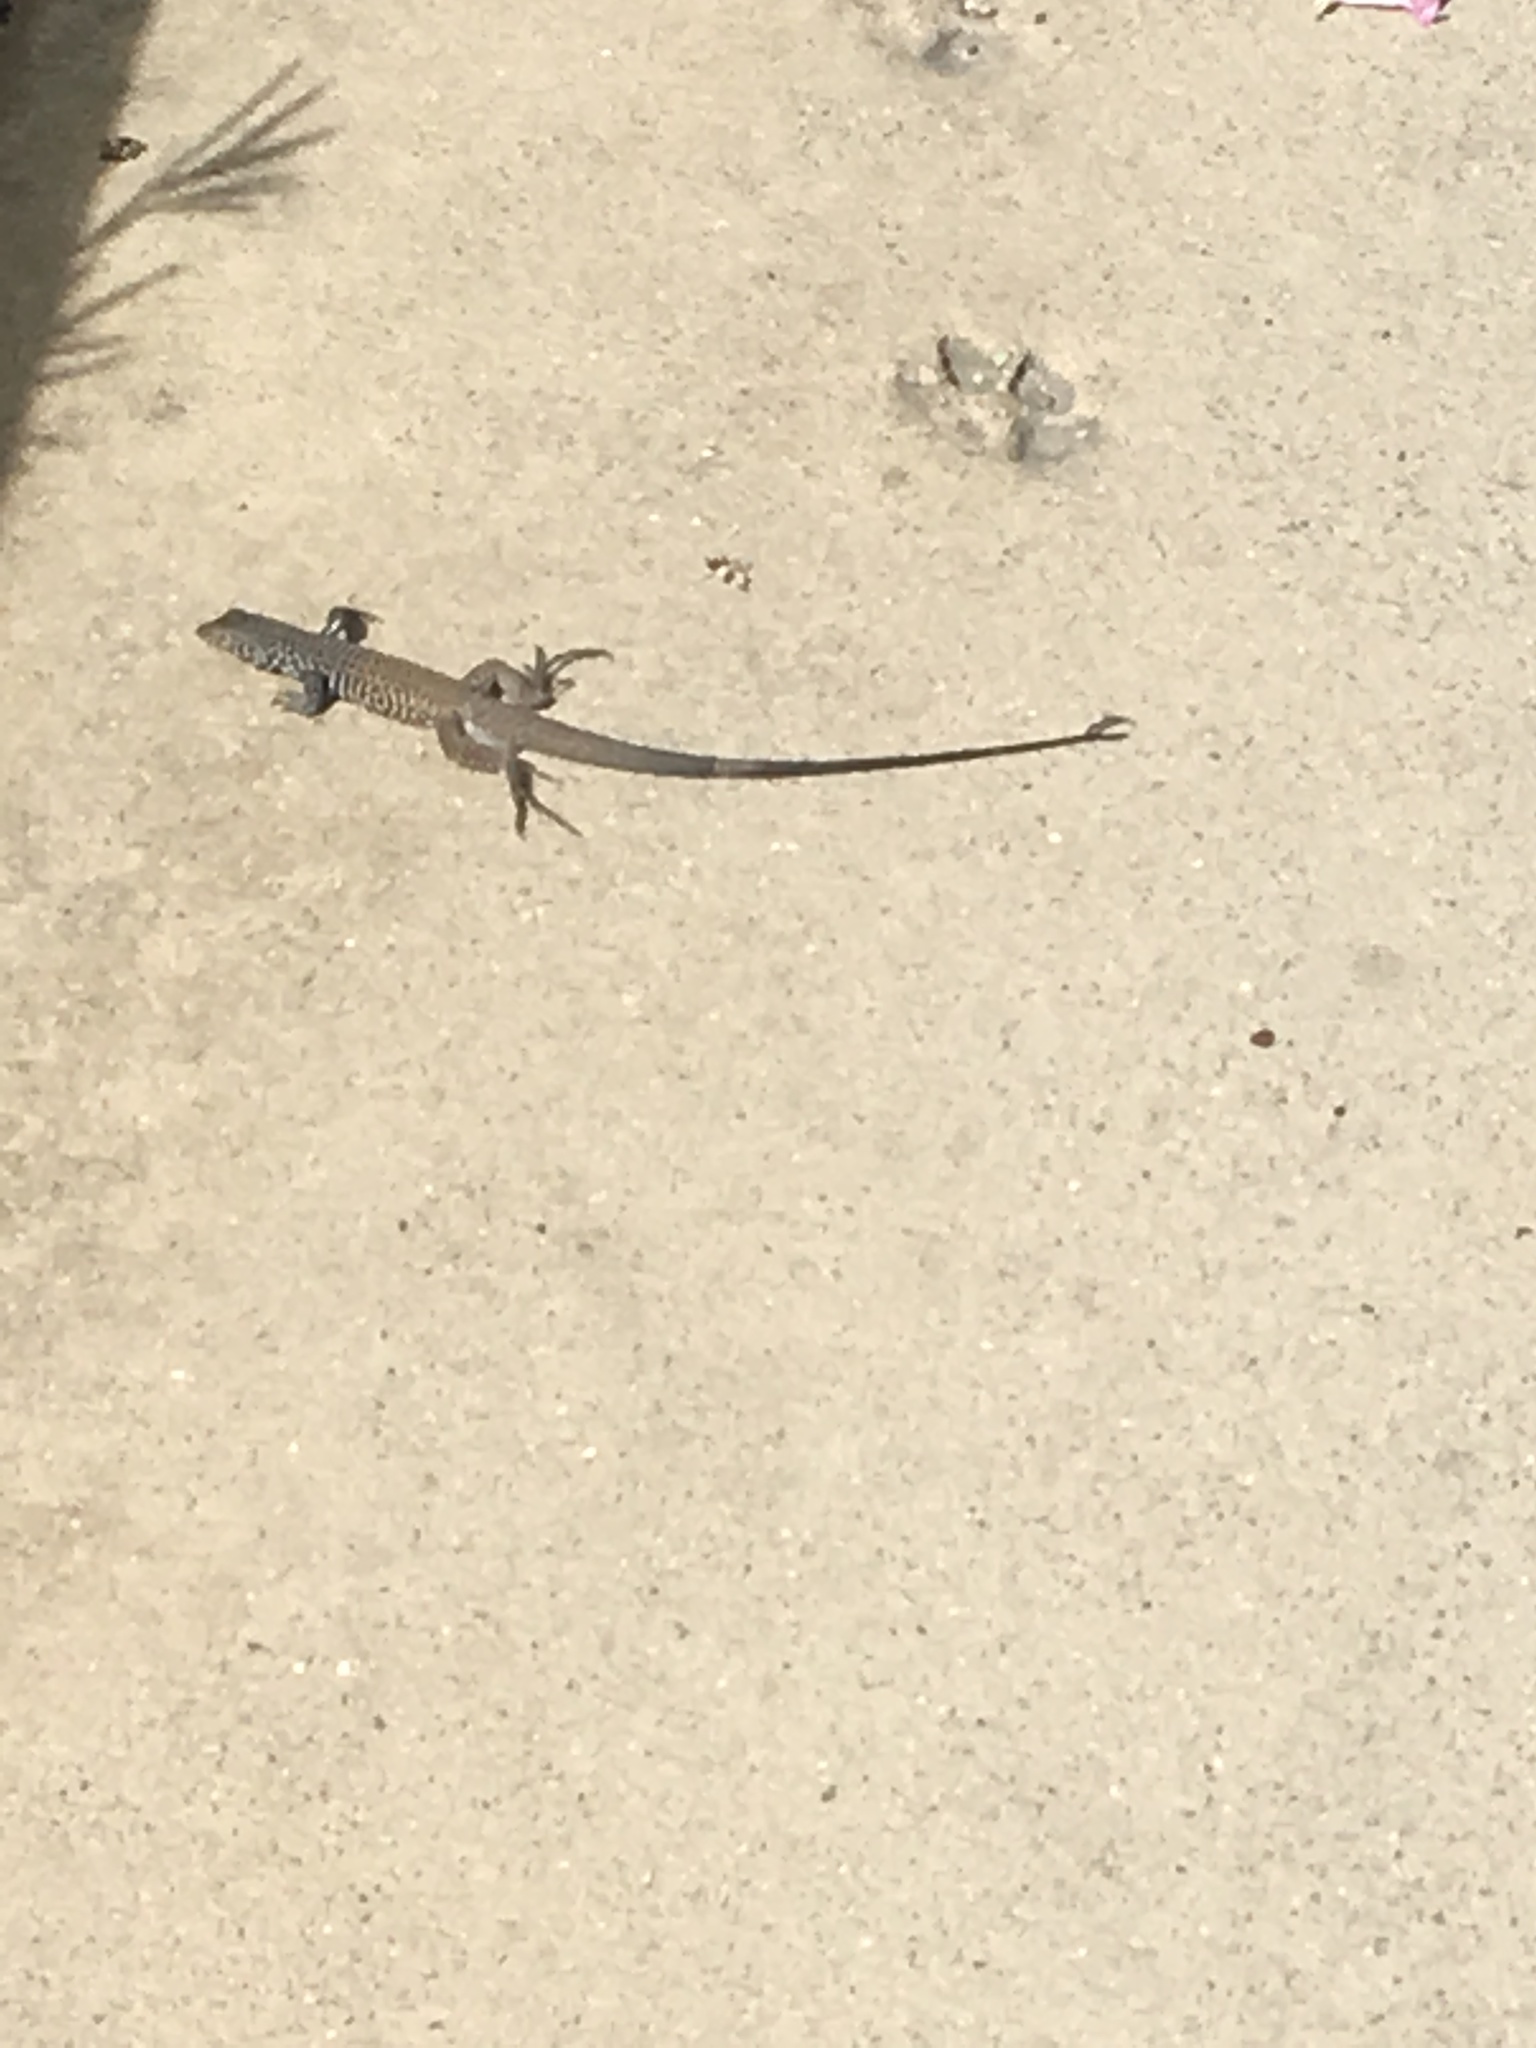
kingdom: Animalia
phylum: Chordata
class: Squamata
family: Teiidae
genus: Aspidoscelis
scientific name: Aspidoscelis tigris
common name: Tiger whiptail
